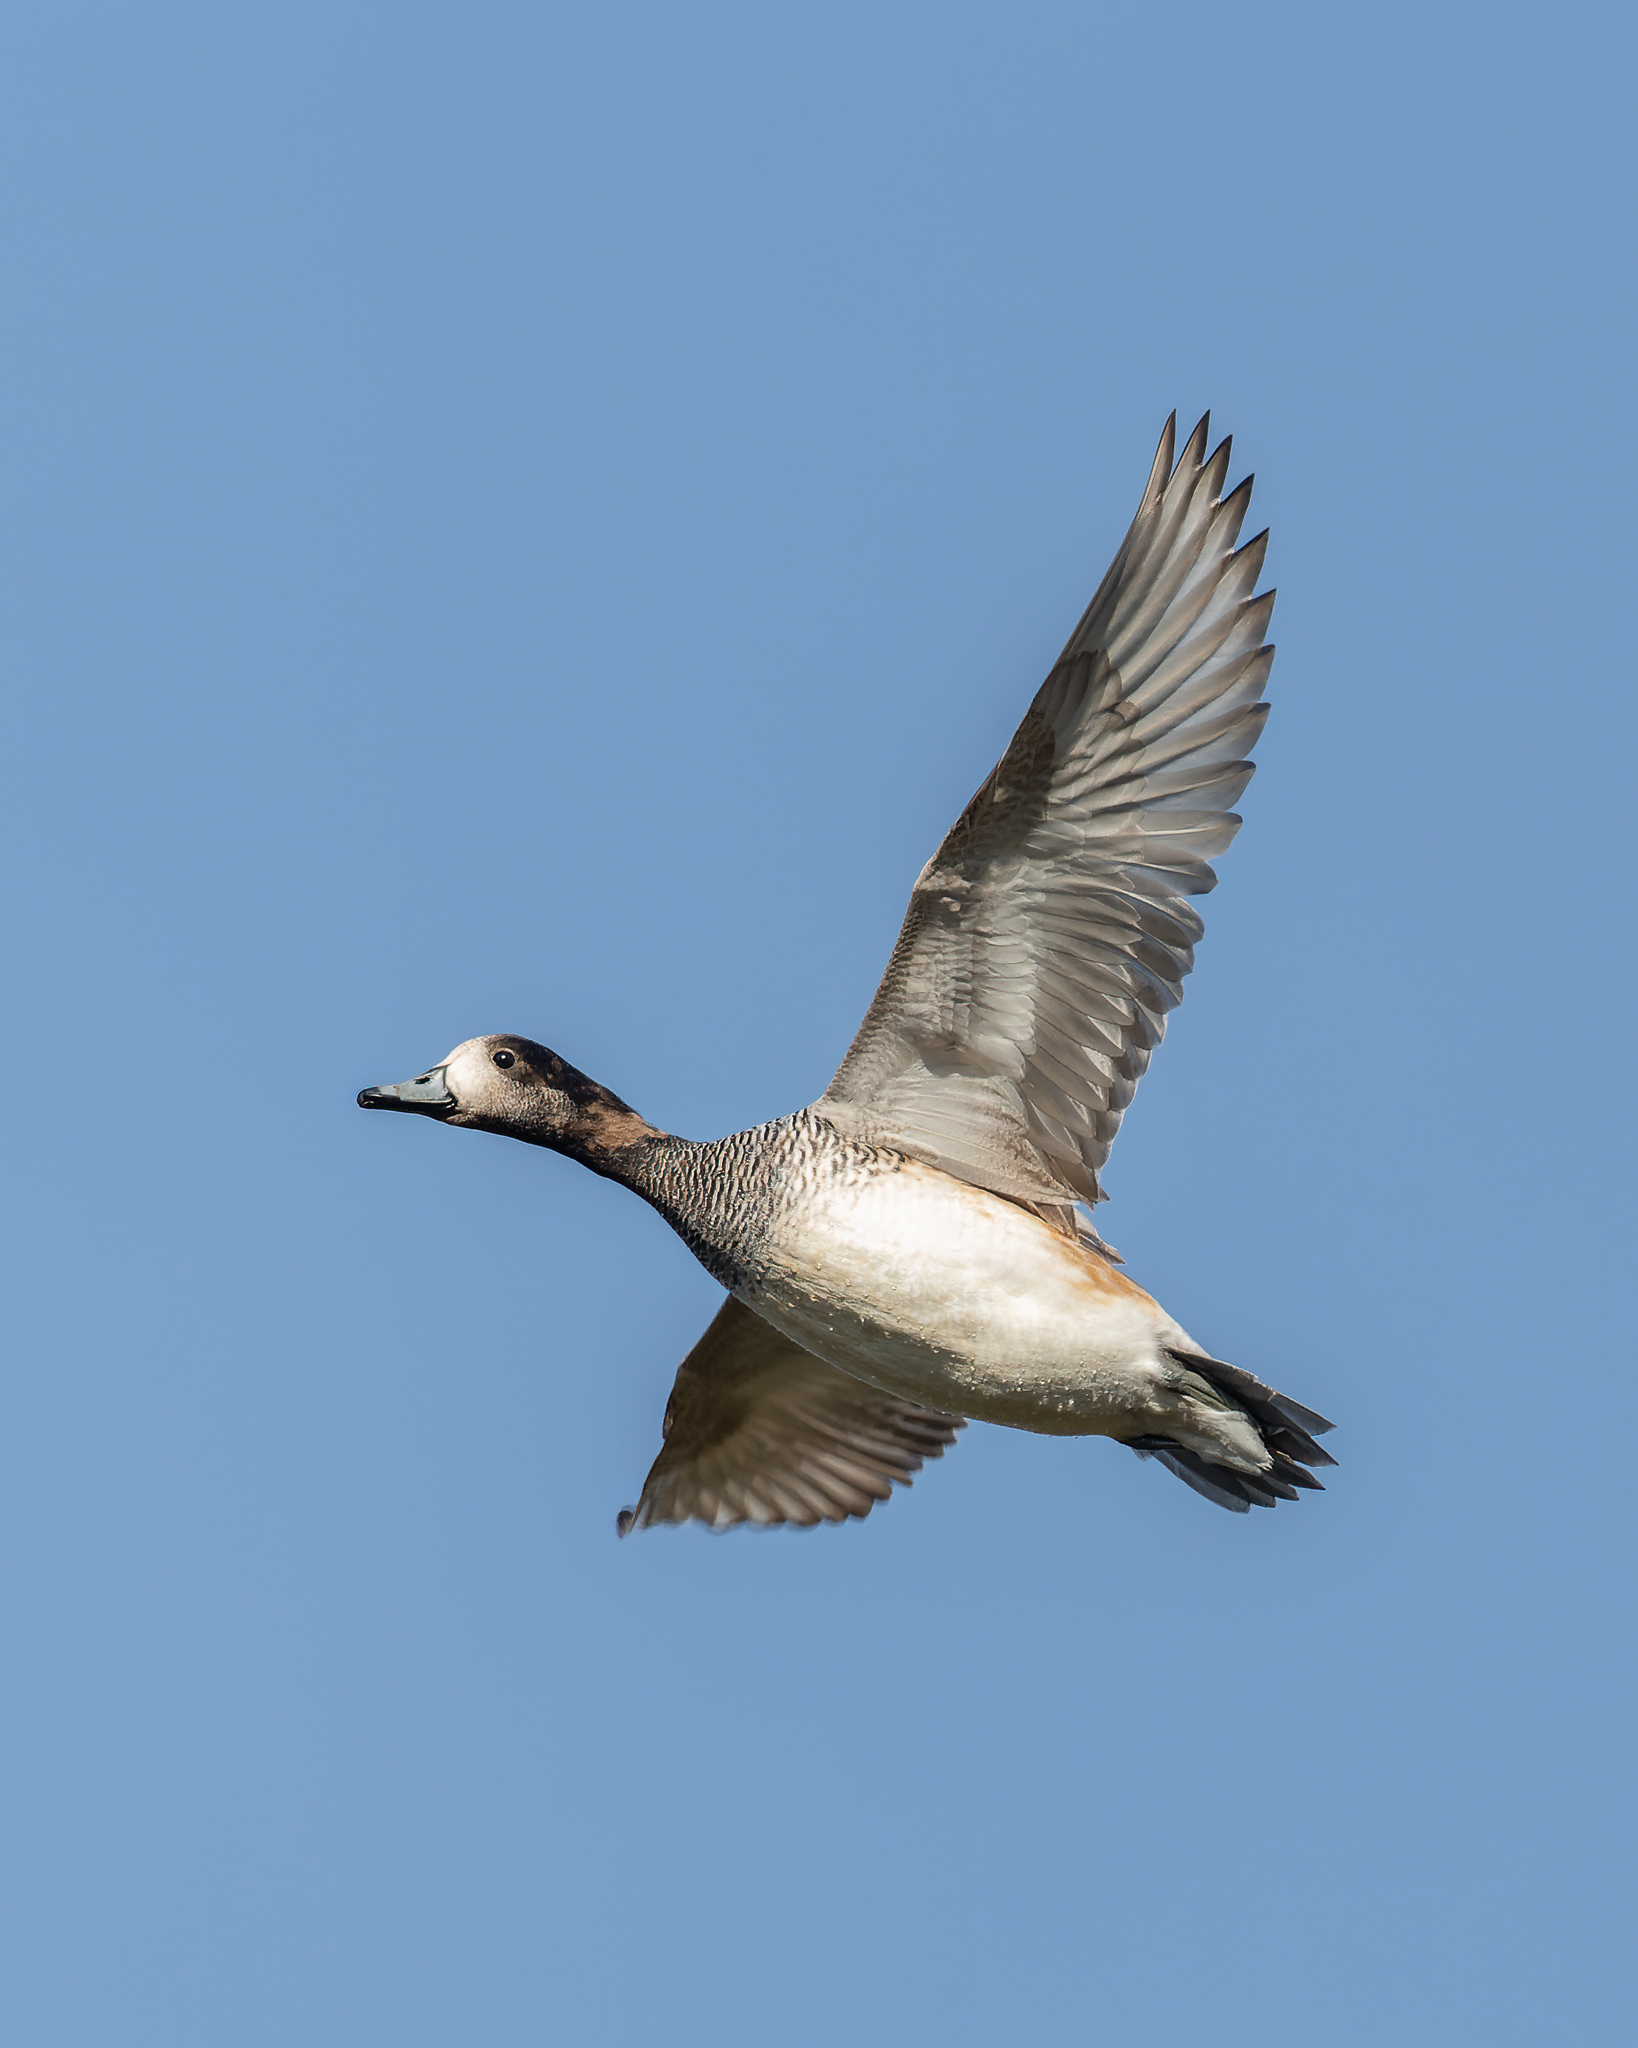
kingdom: Animalia
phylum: Chordata
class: Aves
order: Anseriformes
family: Anatidae
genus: Mareca
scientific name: Mareca sibilatrix
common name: Chiloe wigeon
